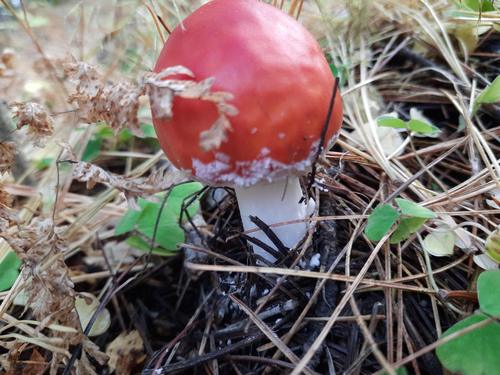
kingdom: Fungi
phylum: Basidiomycota
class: Agaricomycetes
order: Agaricales
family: Amanitaceae
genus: Amanita
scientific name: Amanita muscaria
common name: Fly agaric
